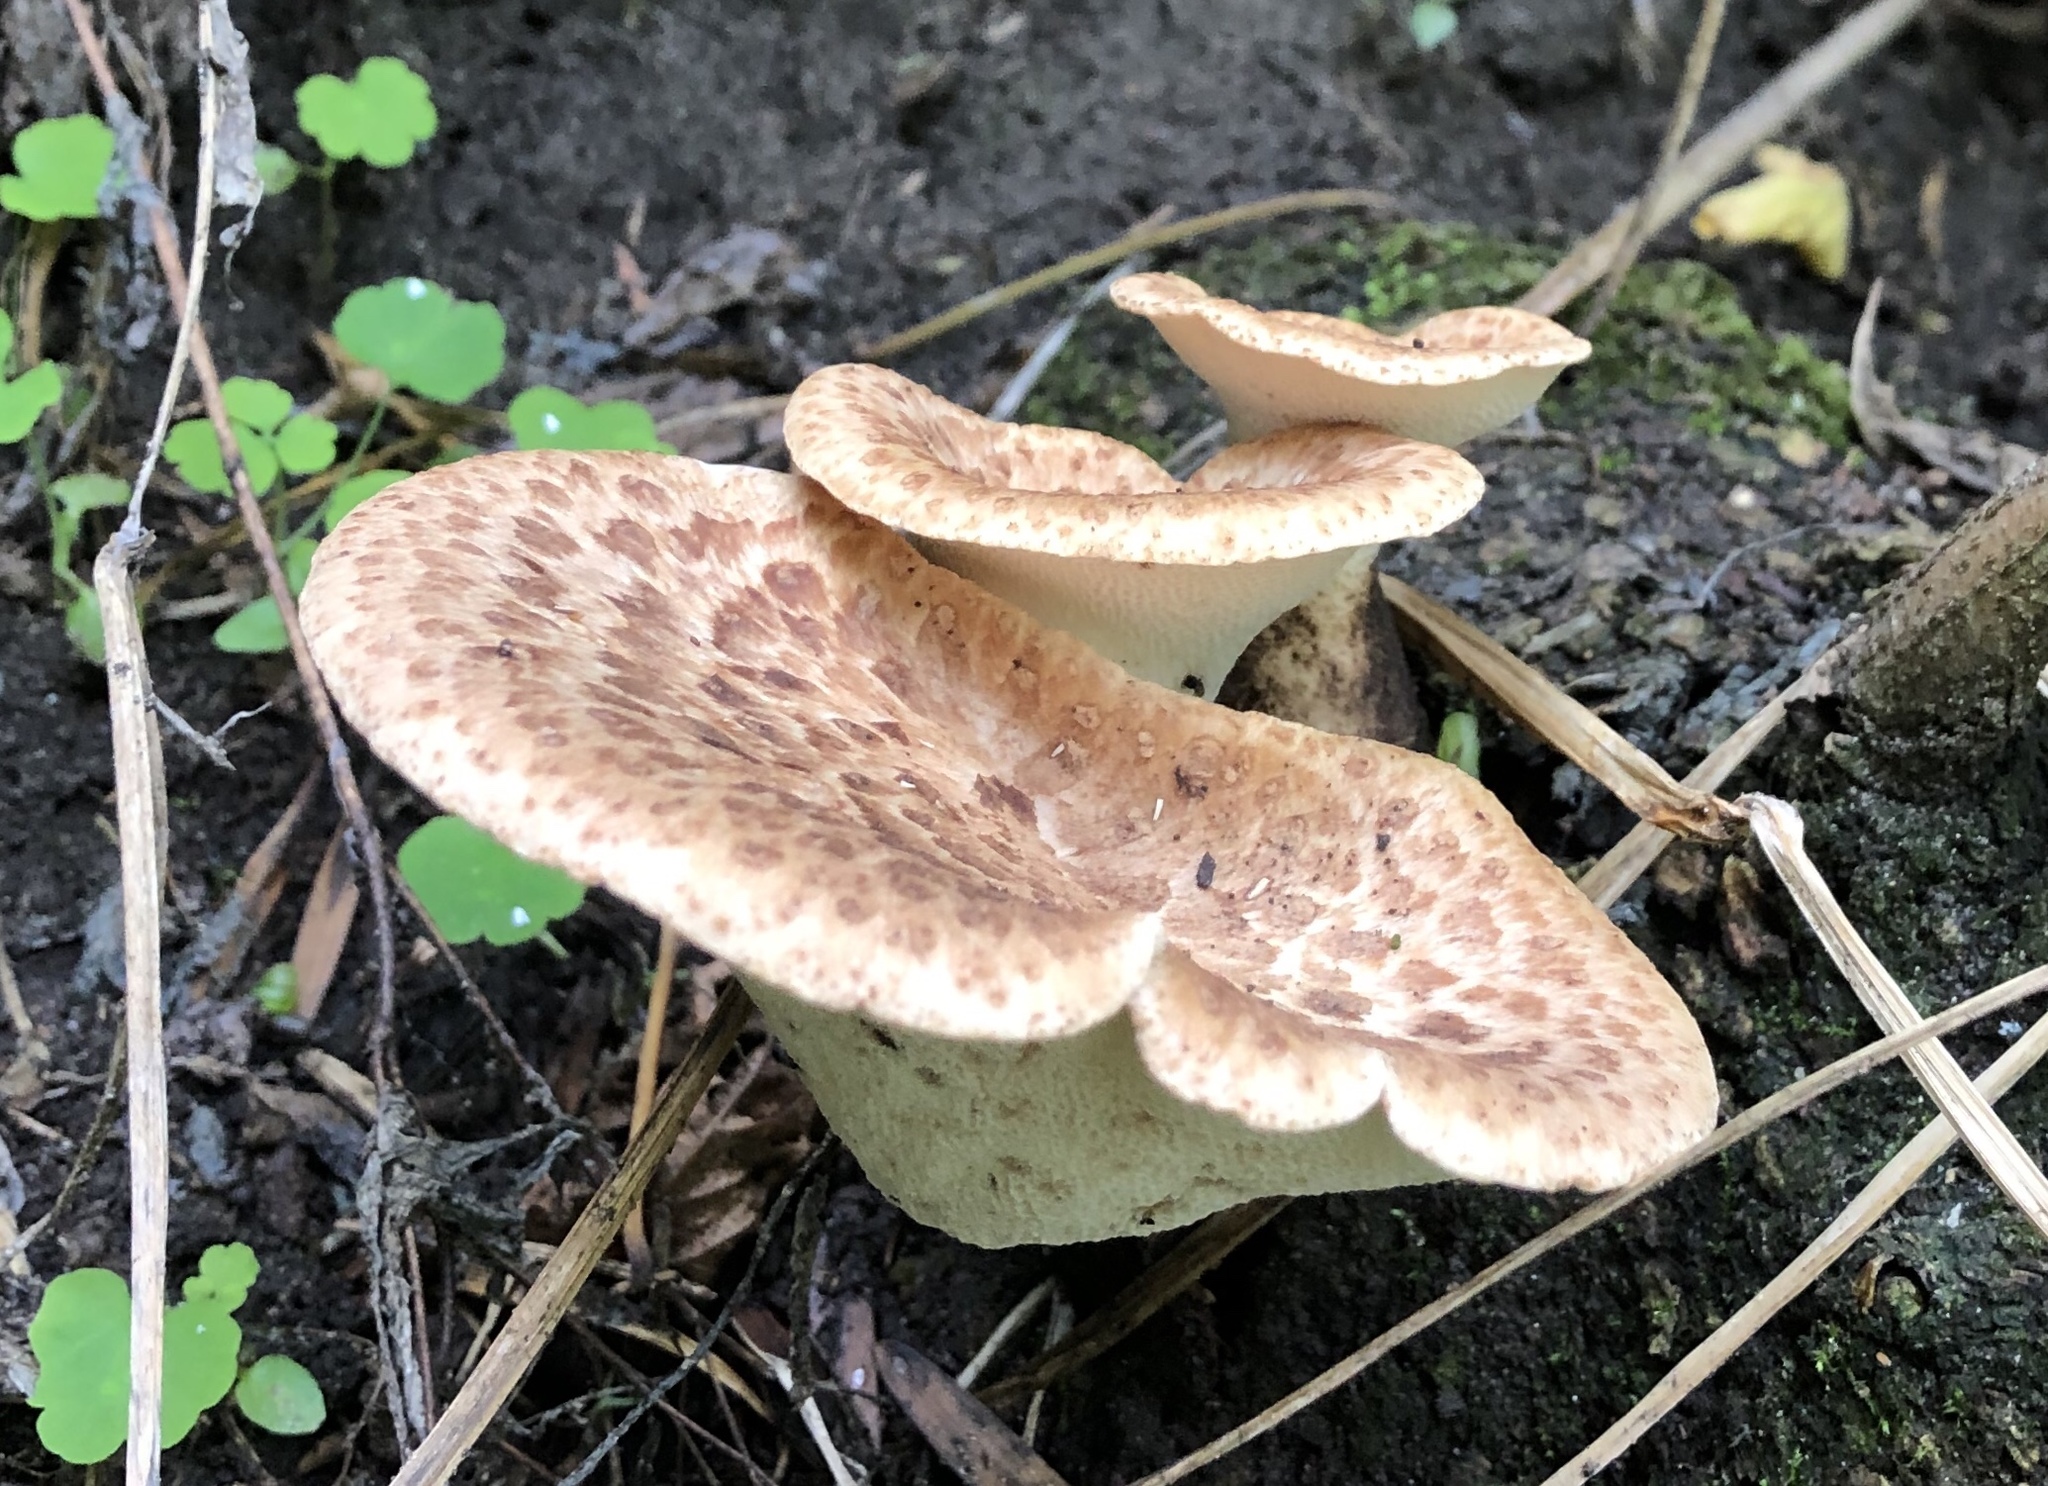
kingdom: Fungi
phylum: Basidiomycota
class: Agaricomycetes
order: Polyporales
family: Polyporaceae
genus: Cerioporus
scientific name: Cerioporus squamosus
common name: Dryad's saddle
